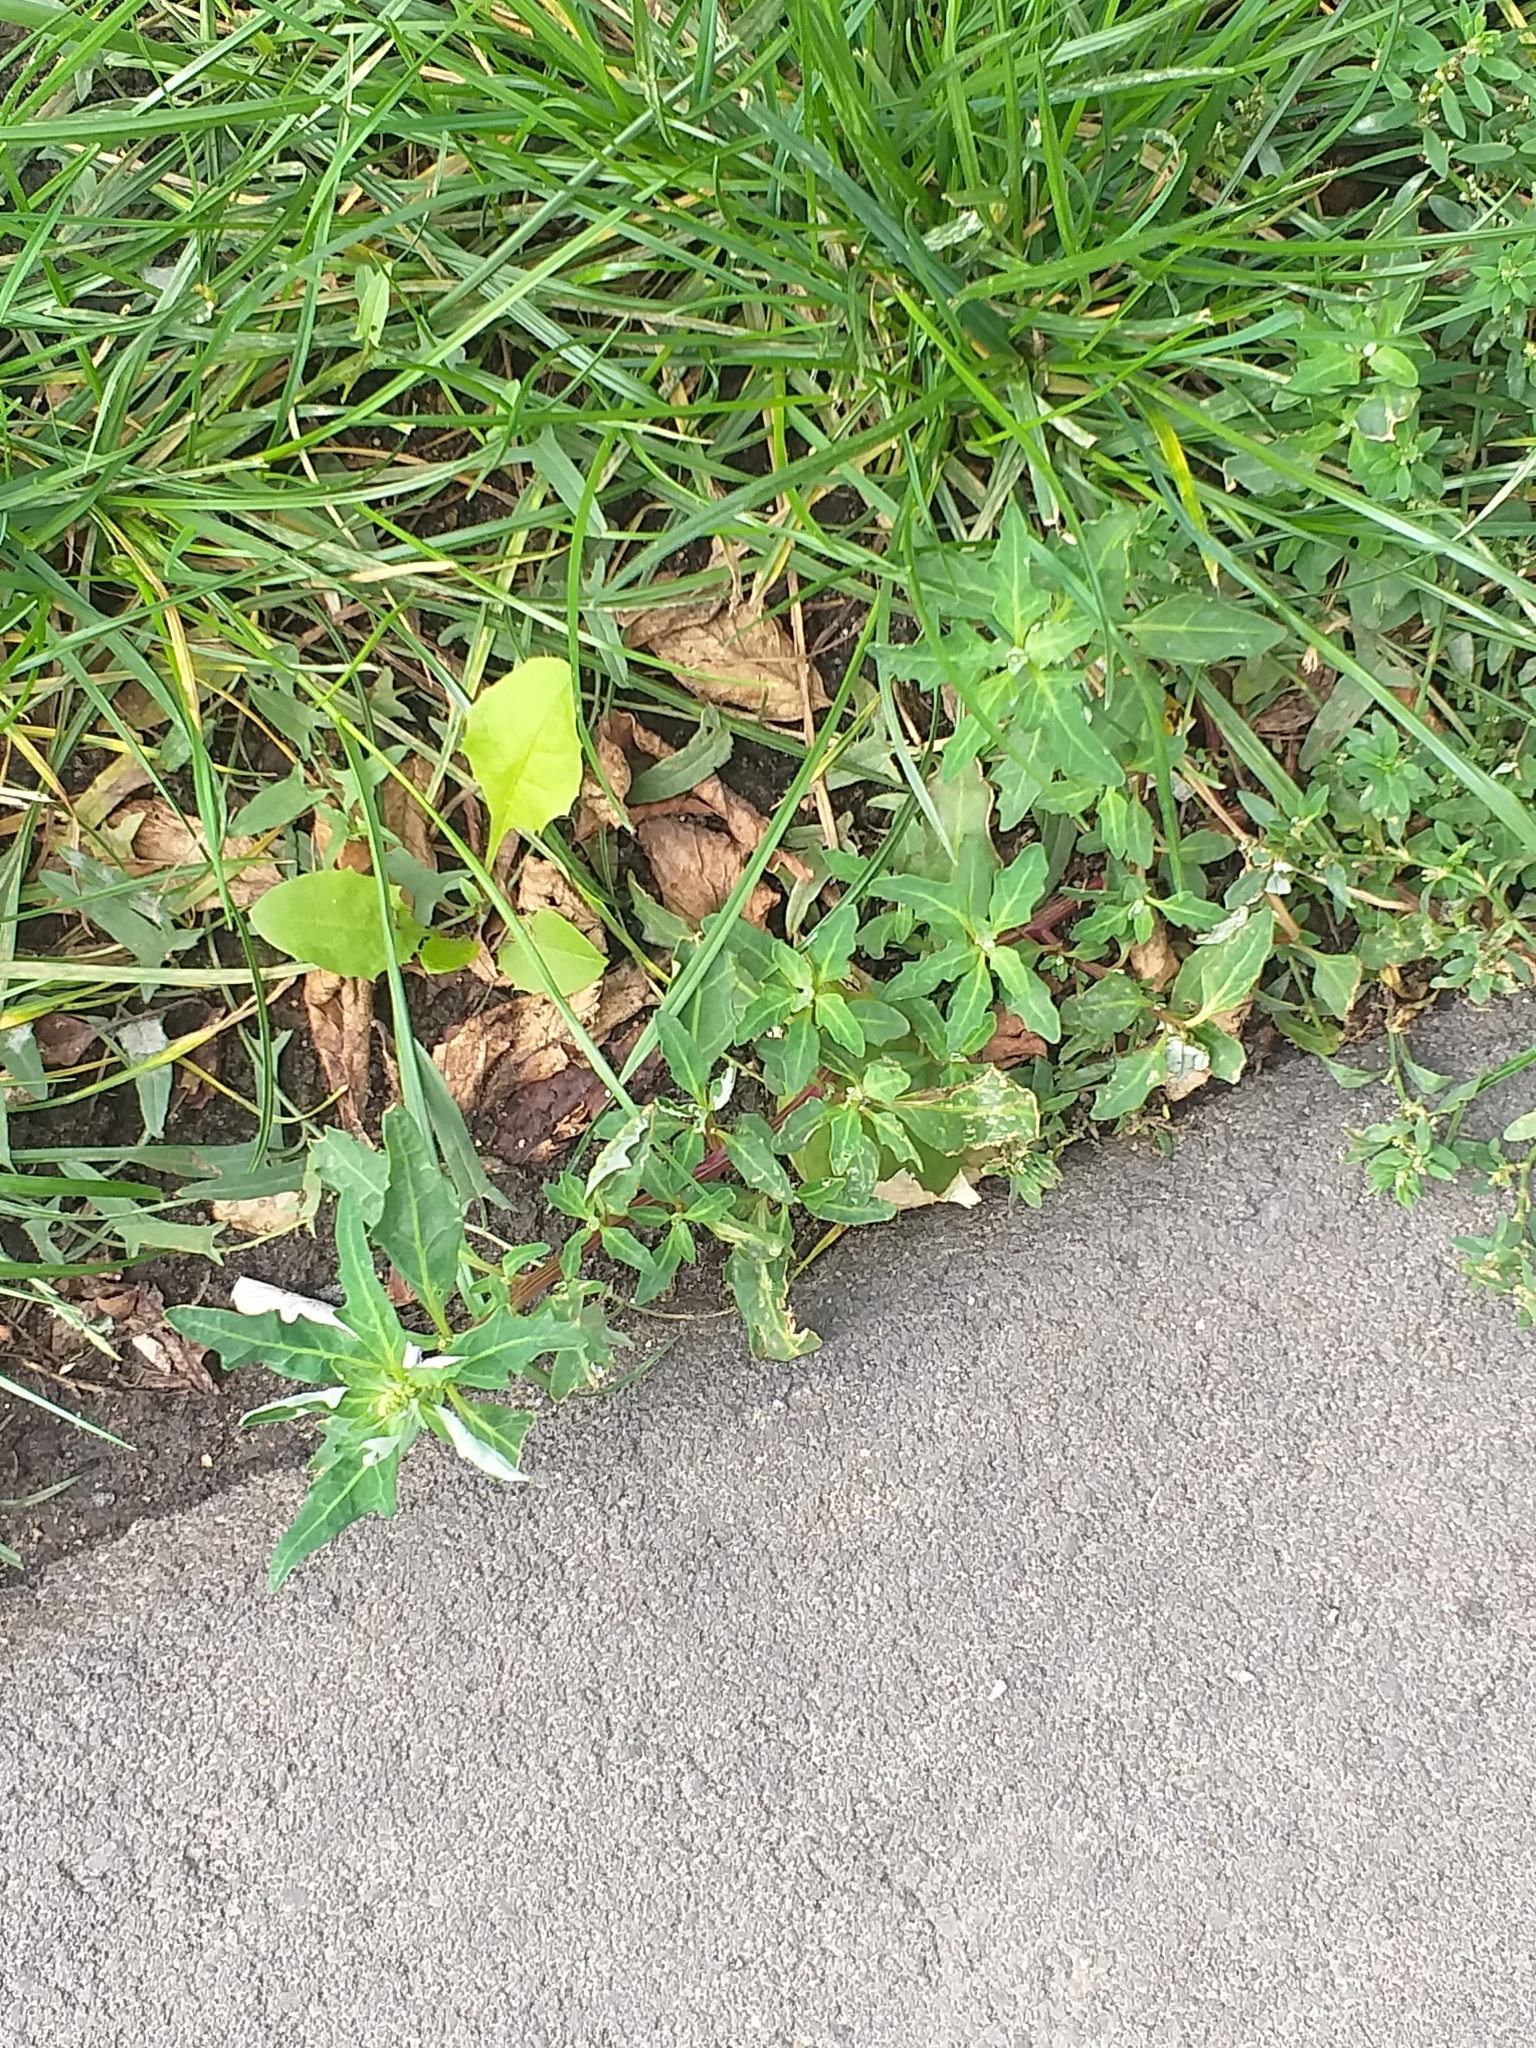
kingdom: Plantae
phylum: Tracheophyta
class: Magnoliopsida
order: Caryophyllales
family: Amaranthaceae
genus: Oxybasis
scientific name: Oxybasis glauca
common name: Glaucous goosefoot
